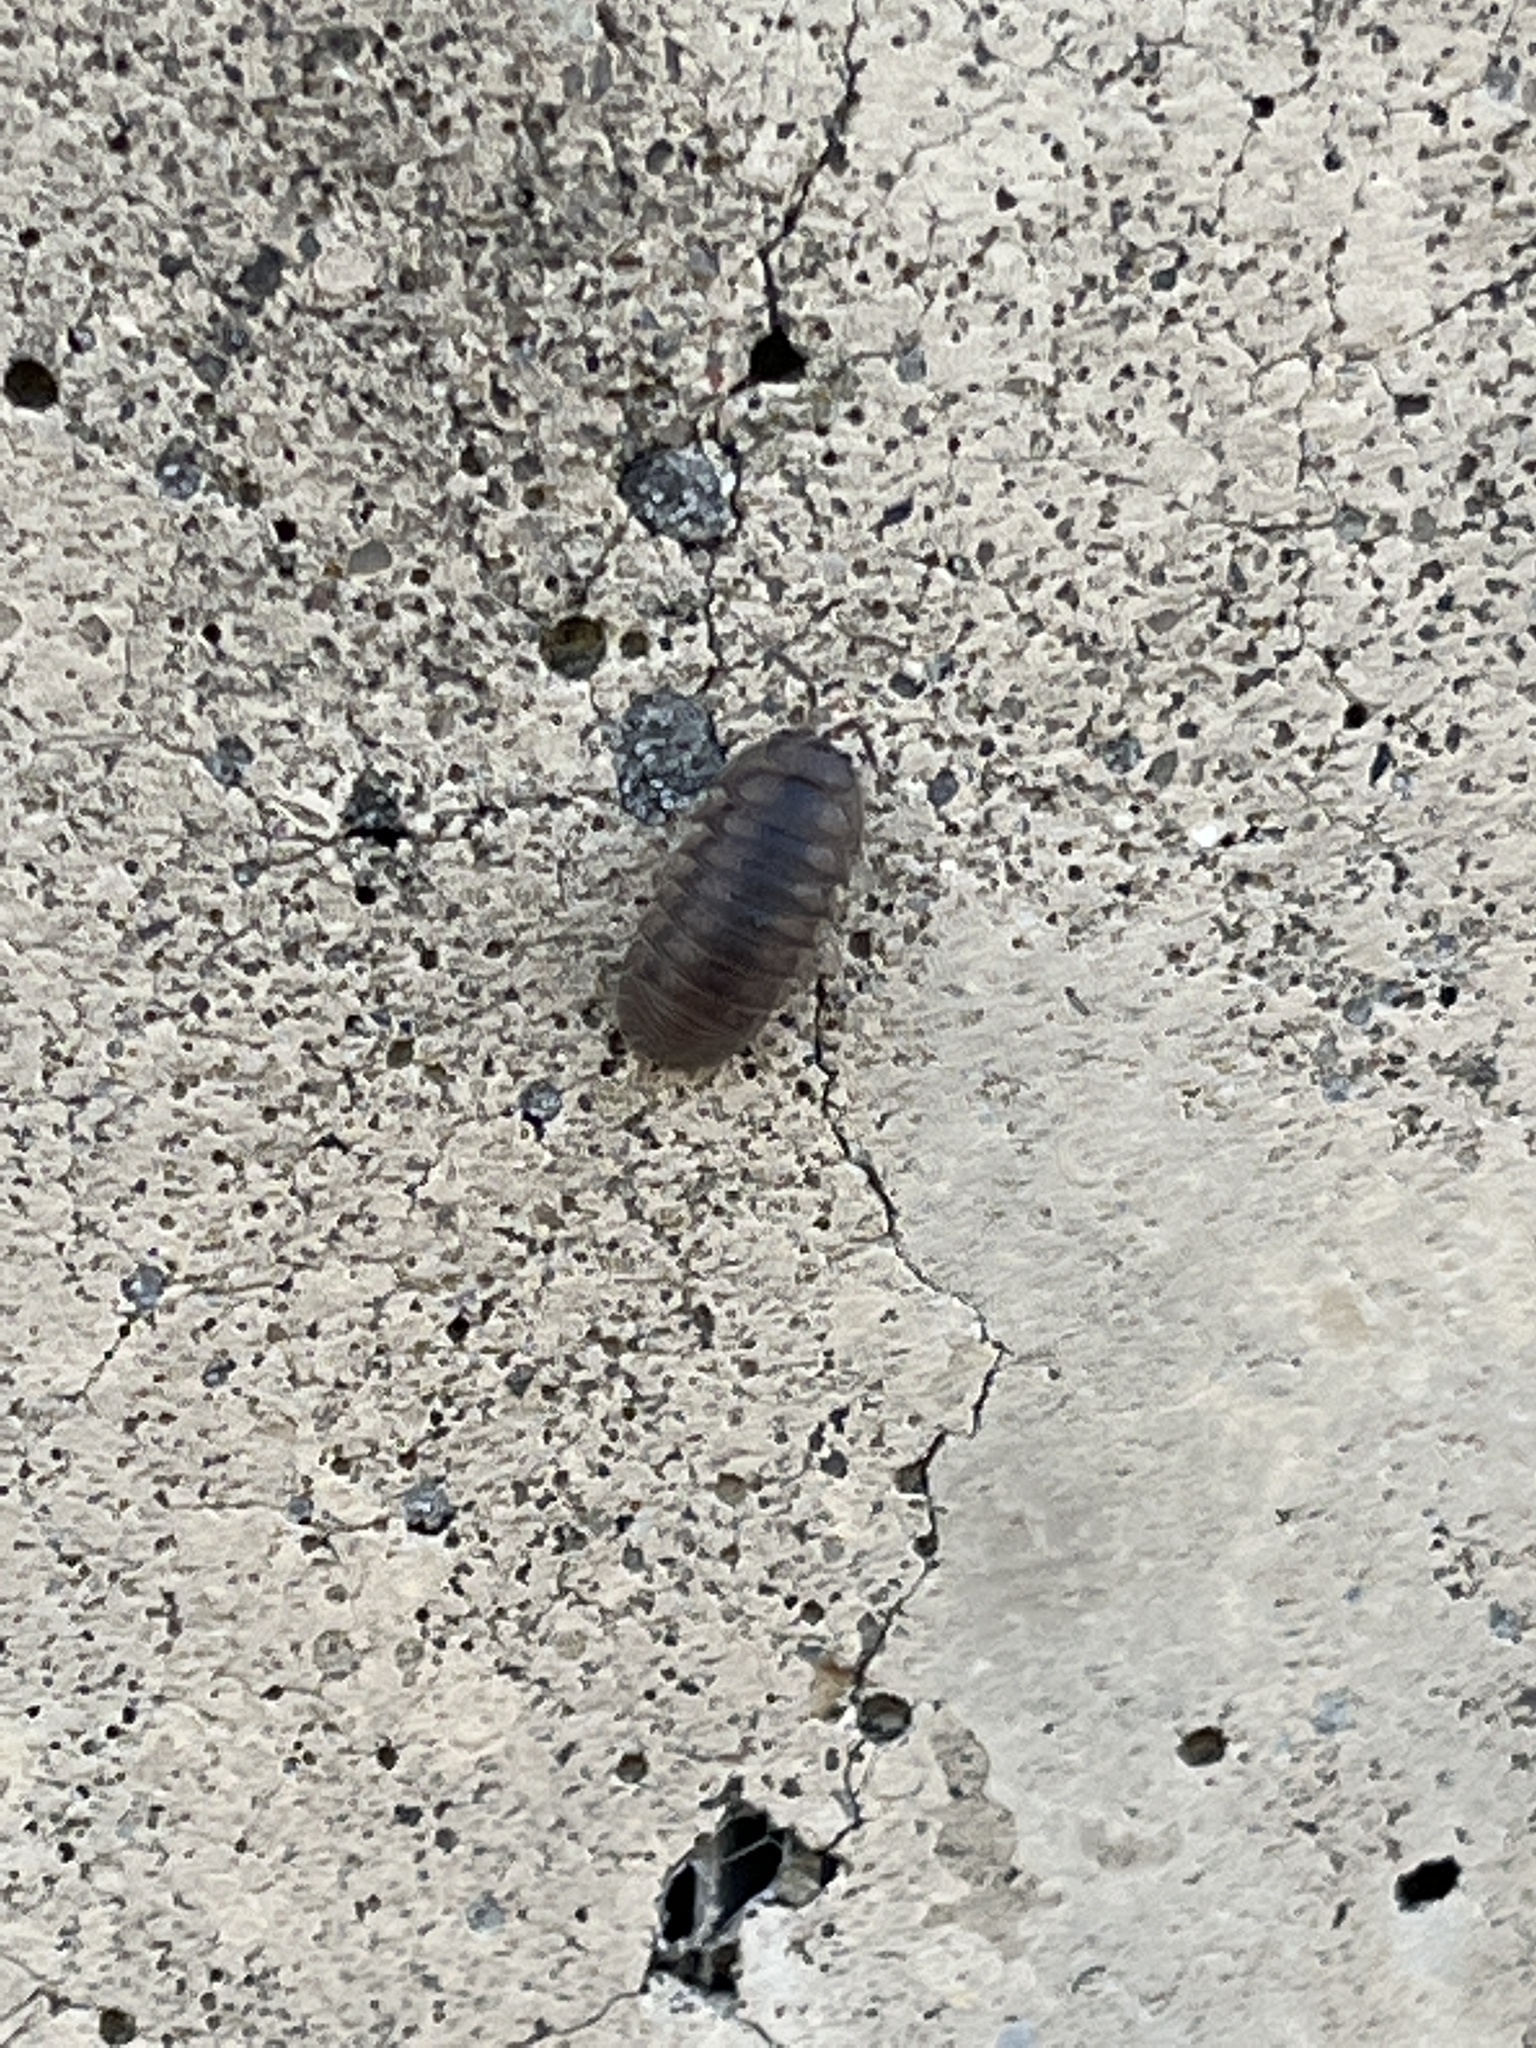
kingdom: Animalia
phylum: Arthropoda
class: Malacostraca
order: Isopoda
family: Armadillidiidae
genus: Armadillidium
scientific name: Armadillidium nasatum
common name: Isopod
